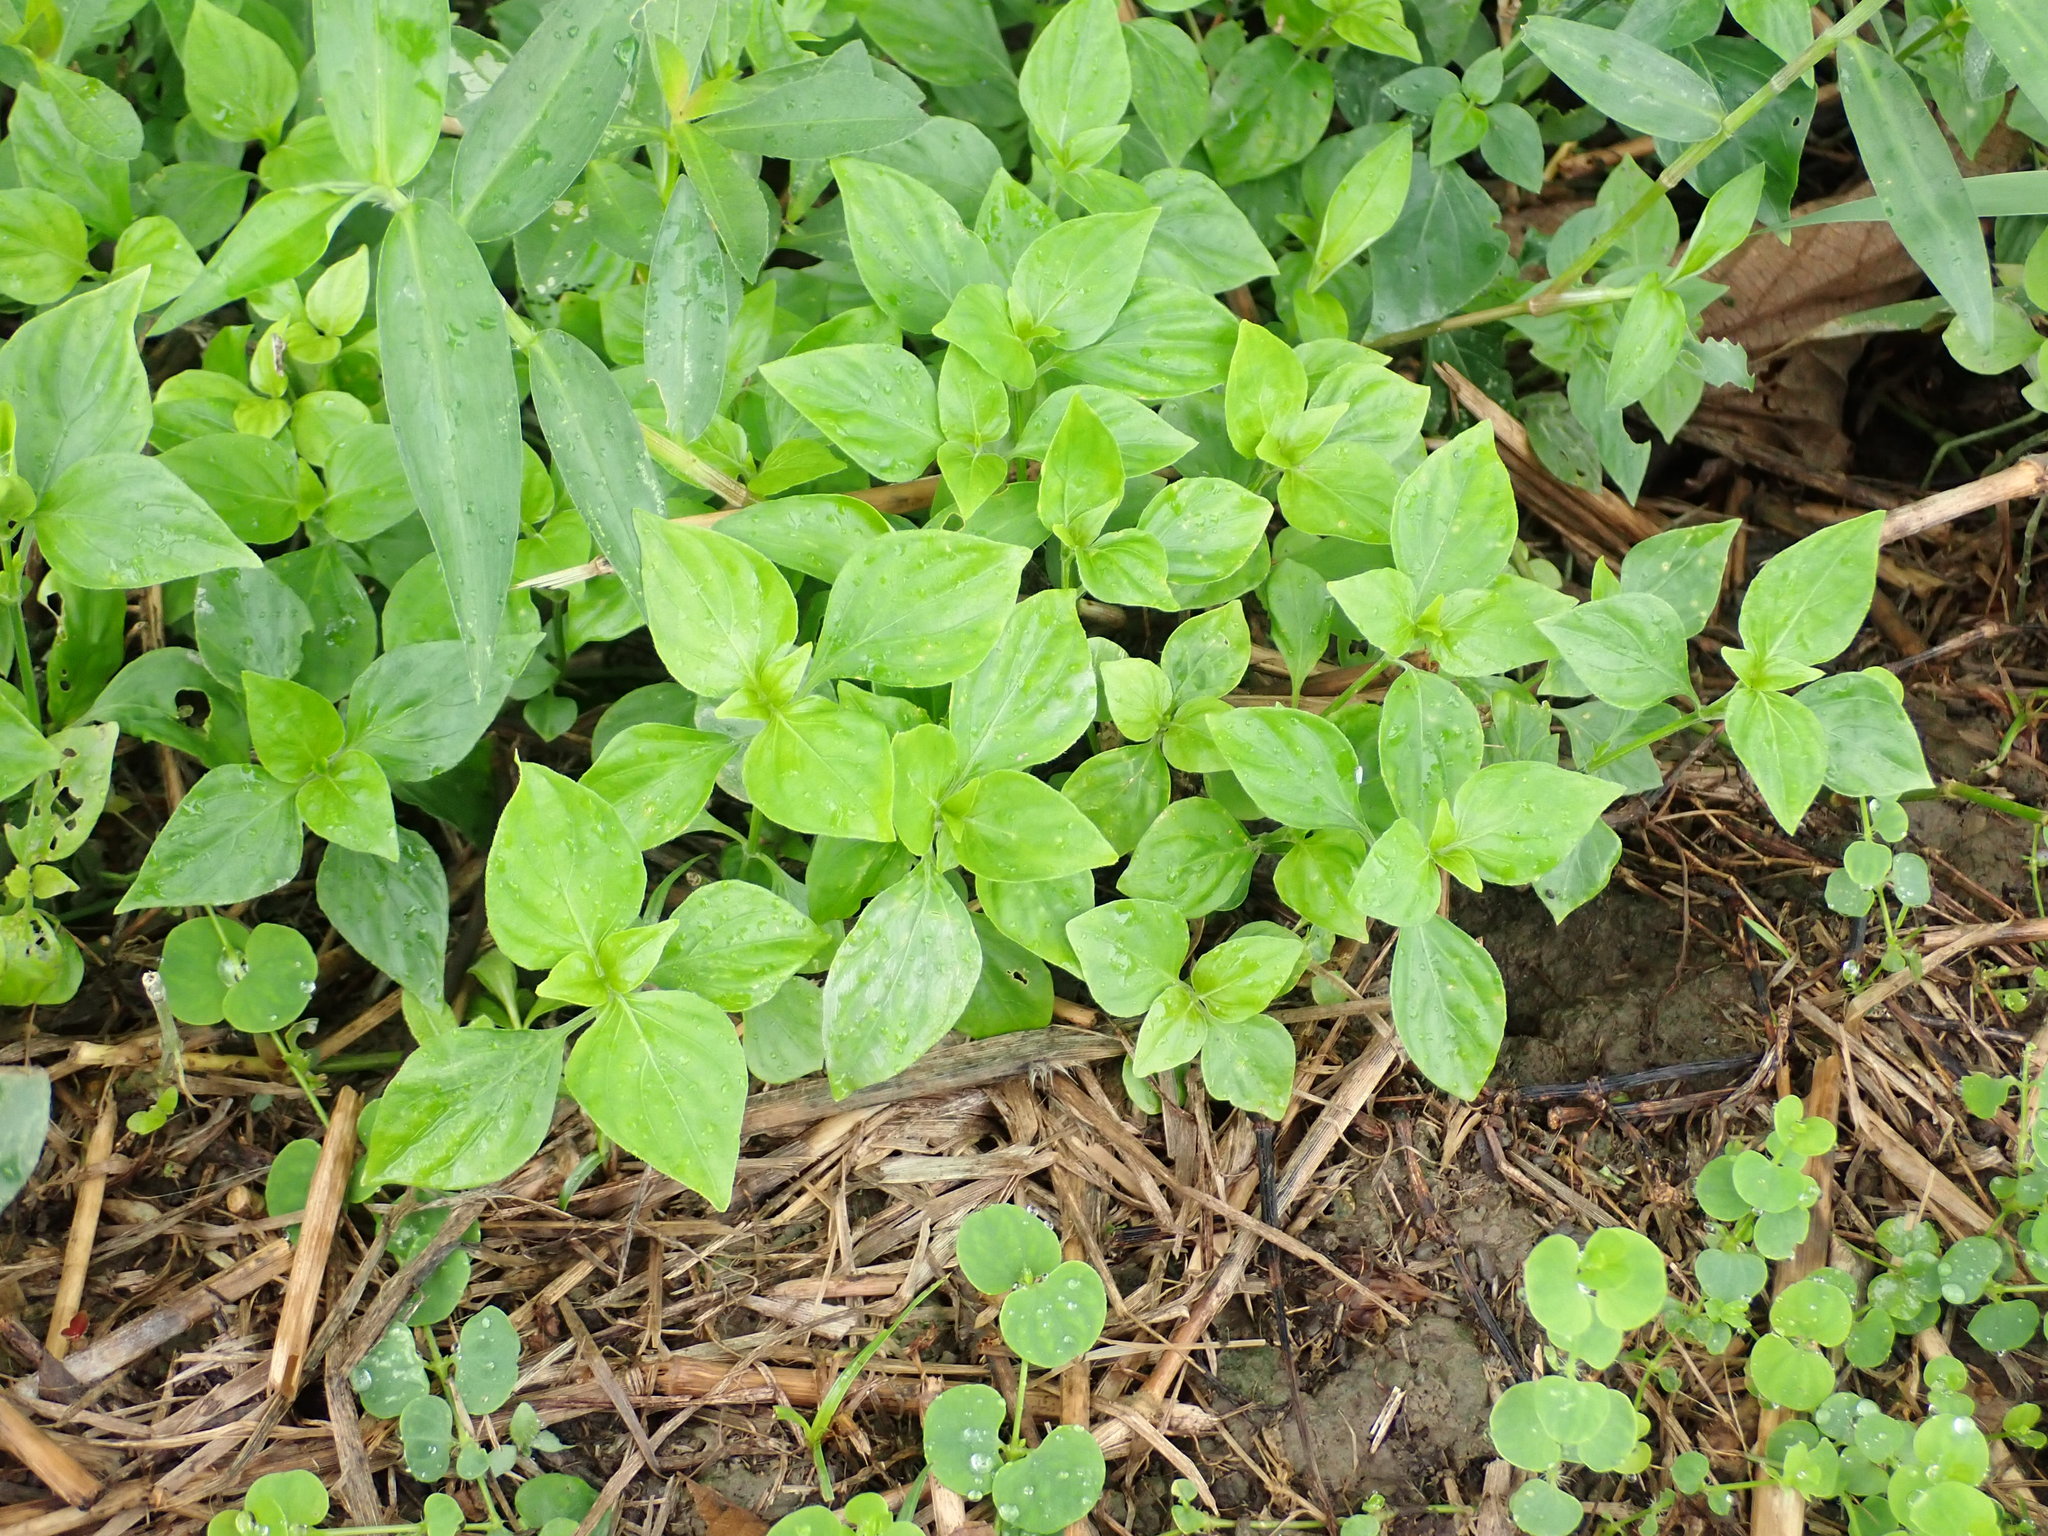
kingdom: Plantae
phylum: Tracheophyta
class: Magnoliopsida
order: Lamiales
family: Acanthaceae
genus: Dicliptera
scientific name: Dicliptera chinensis
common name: Chinese foldwing
